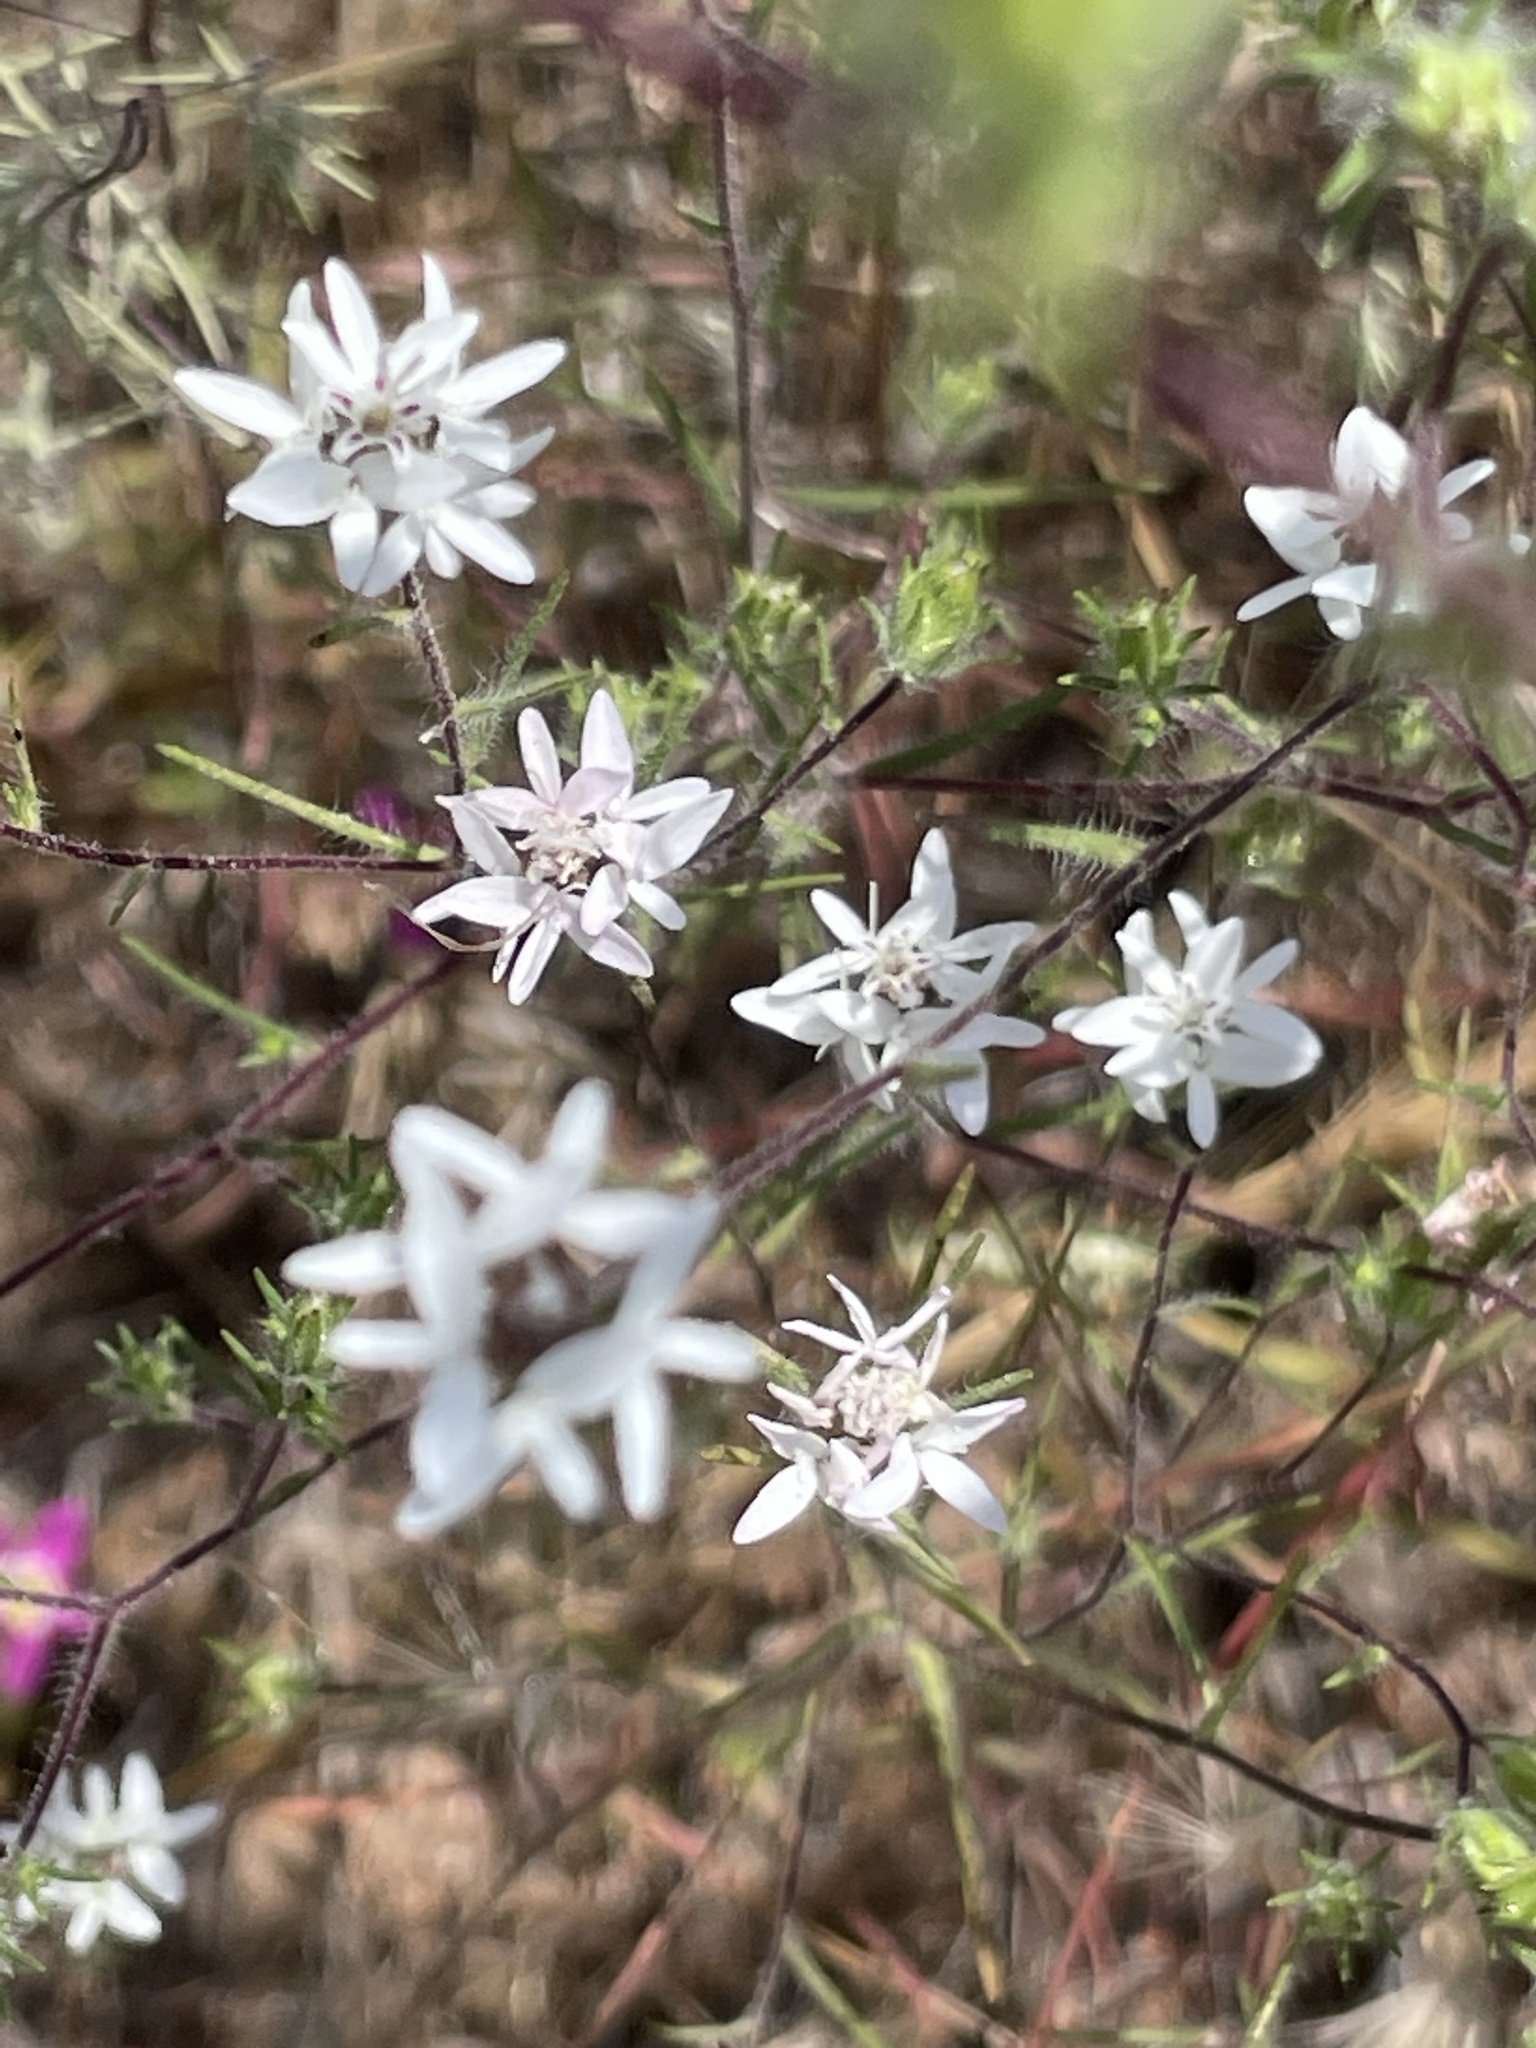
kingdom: Plantae
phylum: Tracheophyta
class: Magnoliopsida
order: Asterales
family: Asteraceae
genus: Osmadenia
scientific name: Osmadenia tenella
